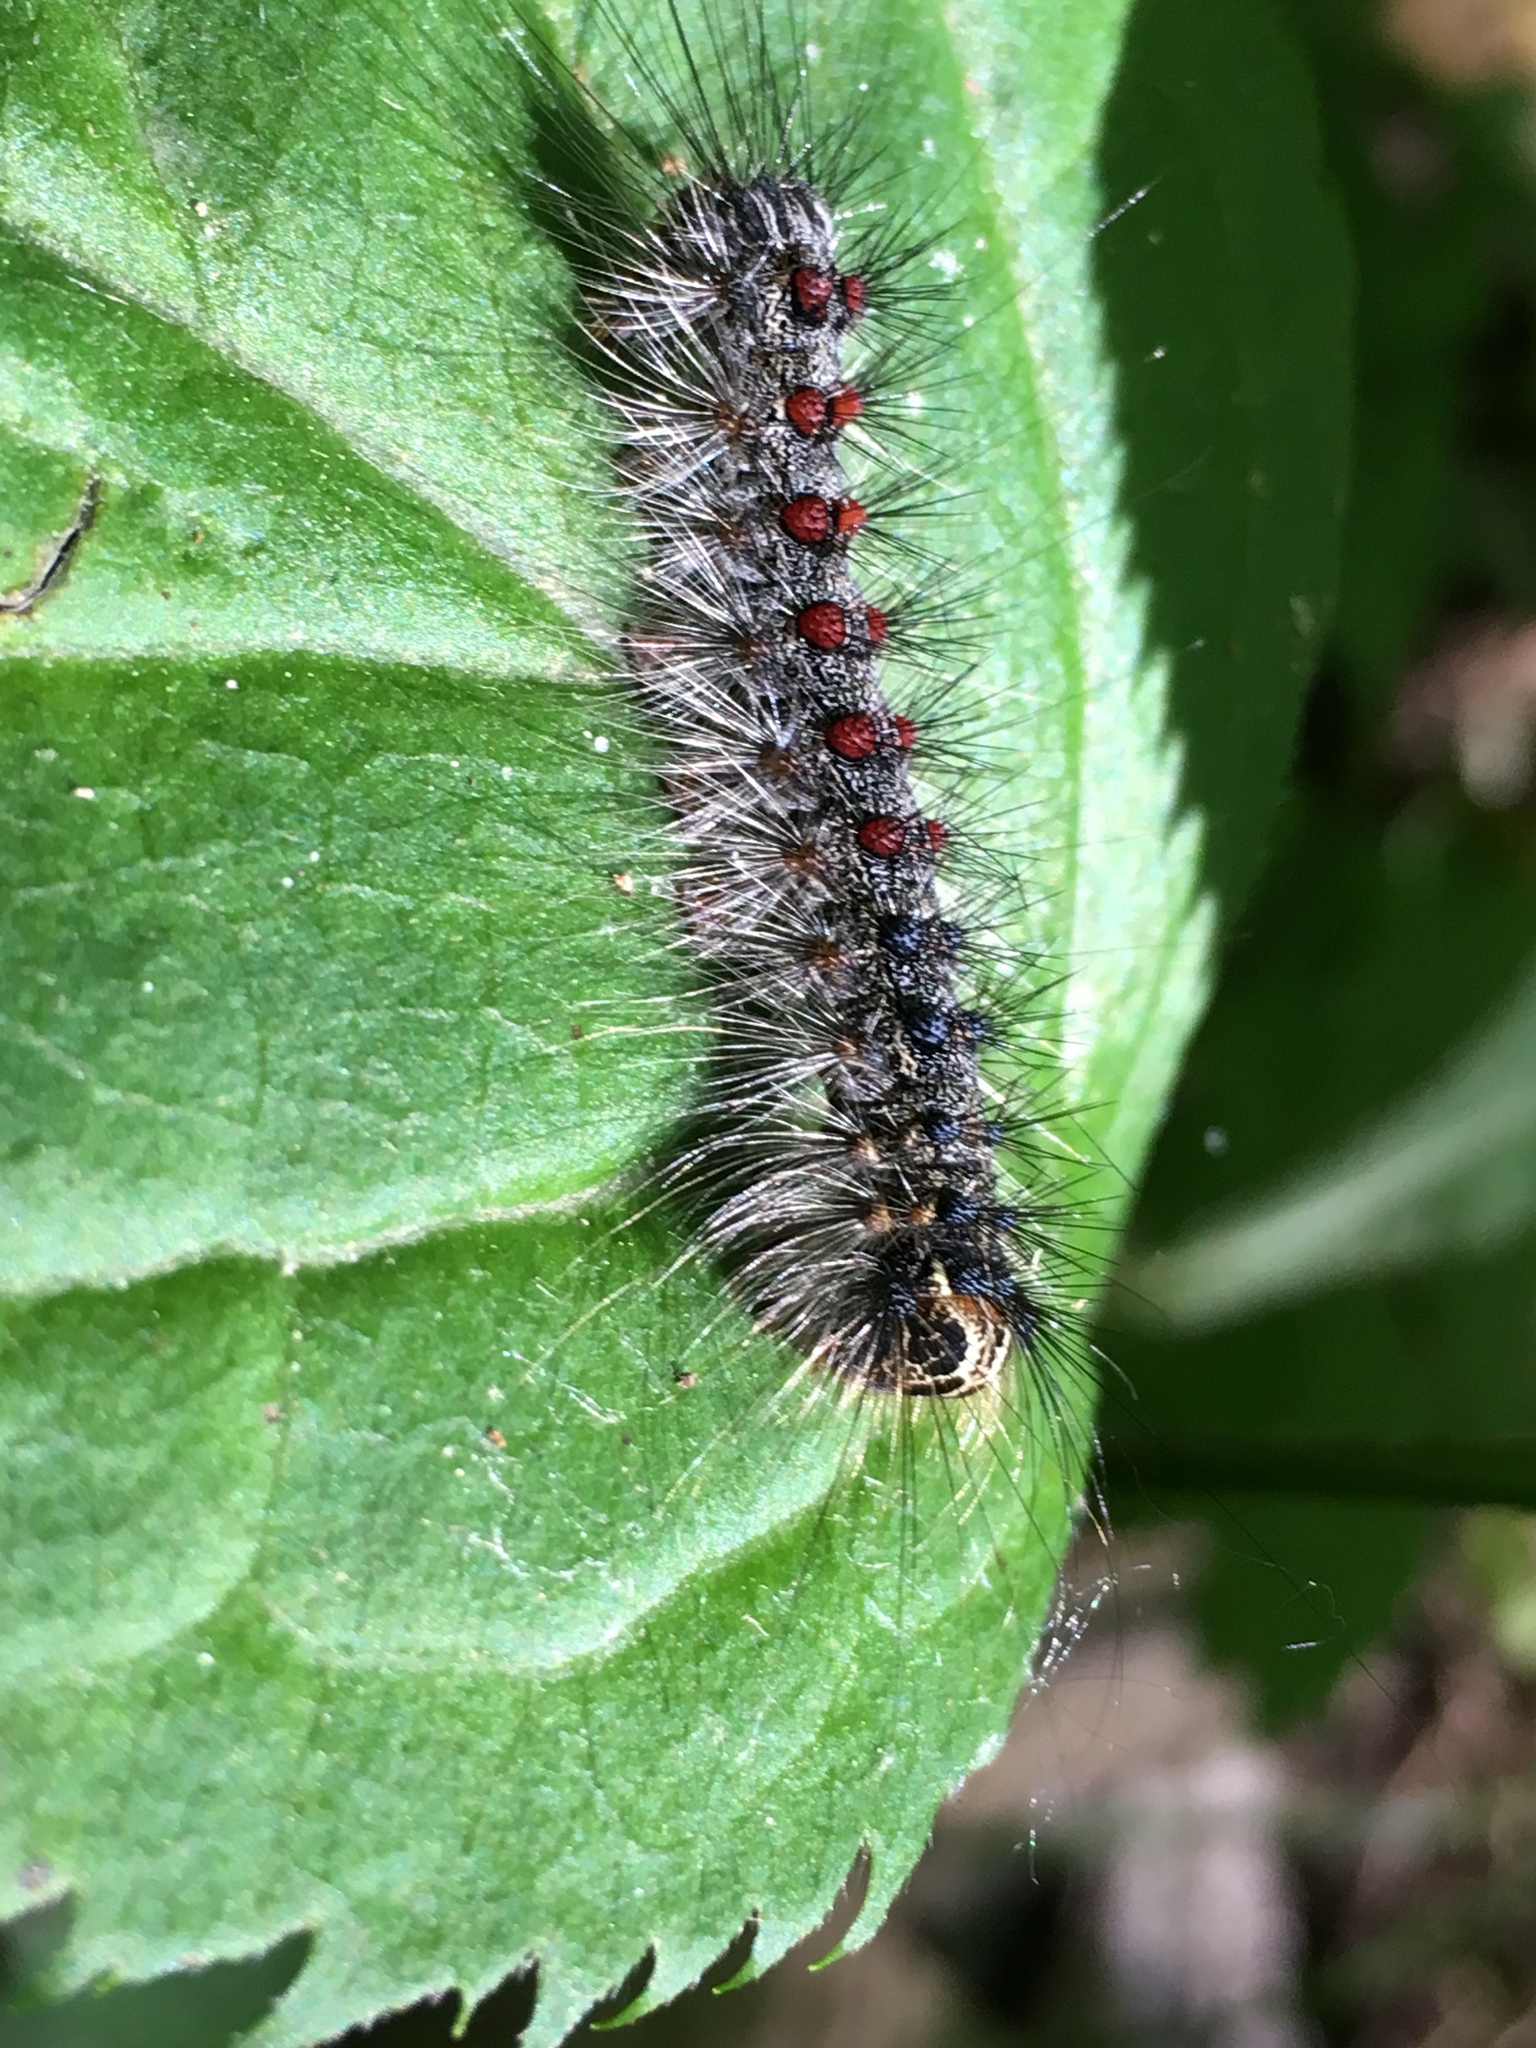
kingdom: Animalia
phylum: Arthropoda
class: Insecta
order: Lepidoptera
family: Erebidae
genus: Lymantria
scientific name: Lymantria dispar
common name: Gypsy moth
